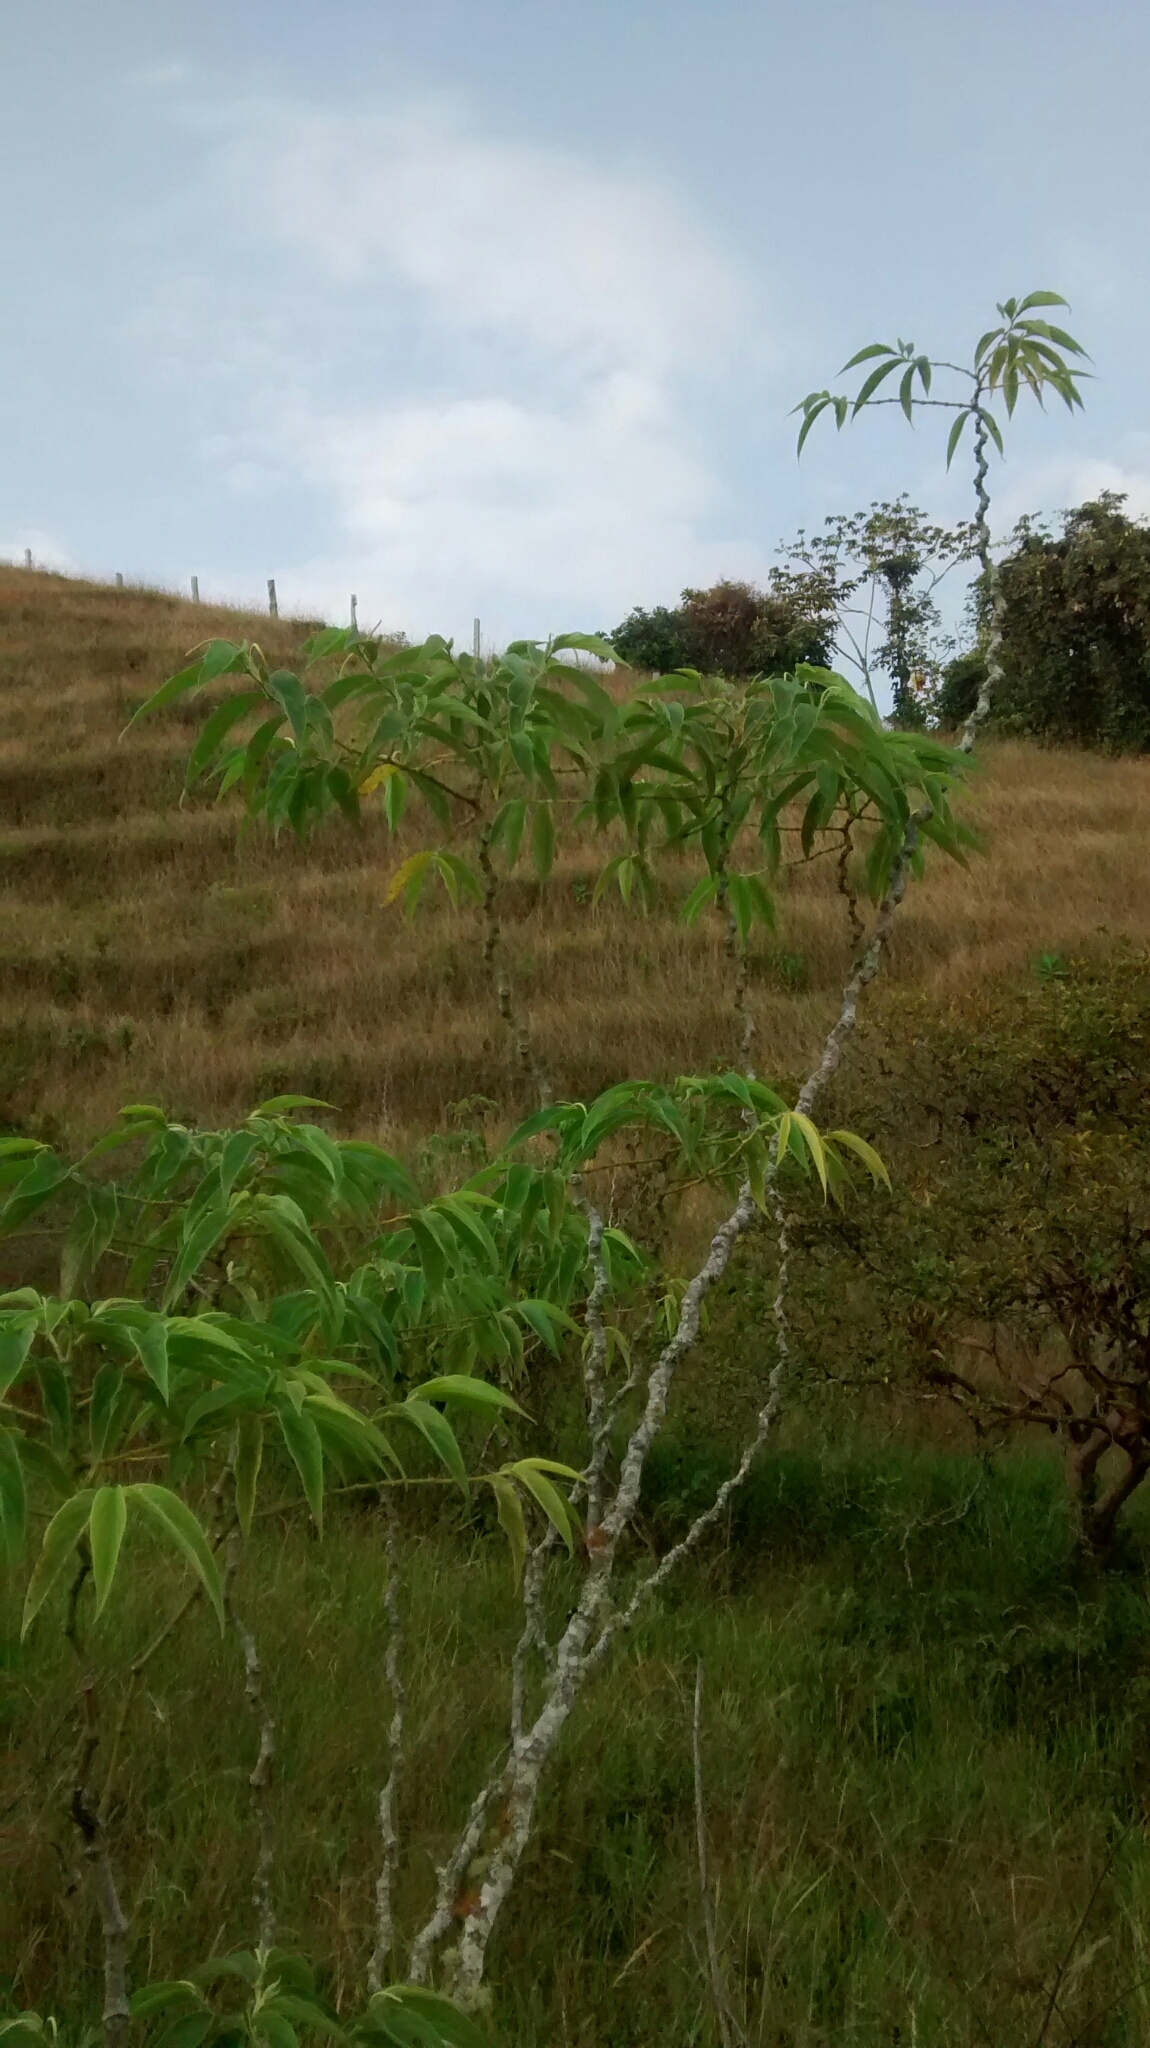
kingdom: Plantae
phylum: Tracheophyta
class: Magnoliopsida
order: Piperales
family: Piperaceae
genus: Piper
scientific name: Piper aduncum
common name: Spiked pepper
